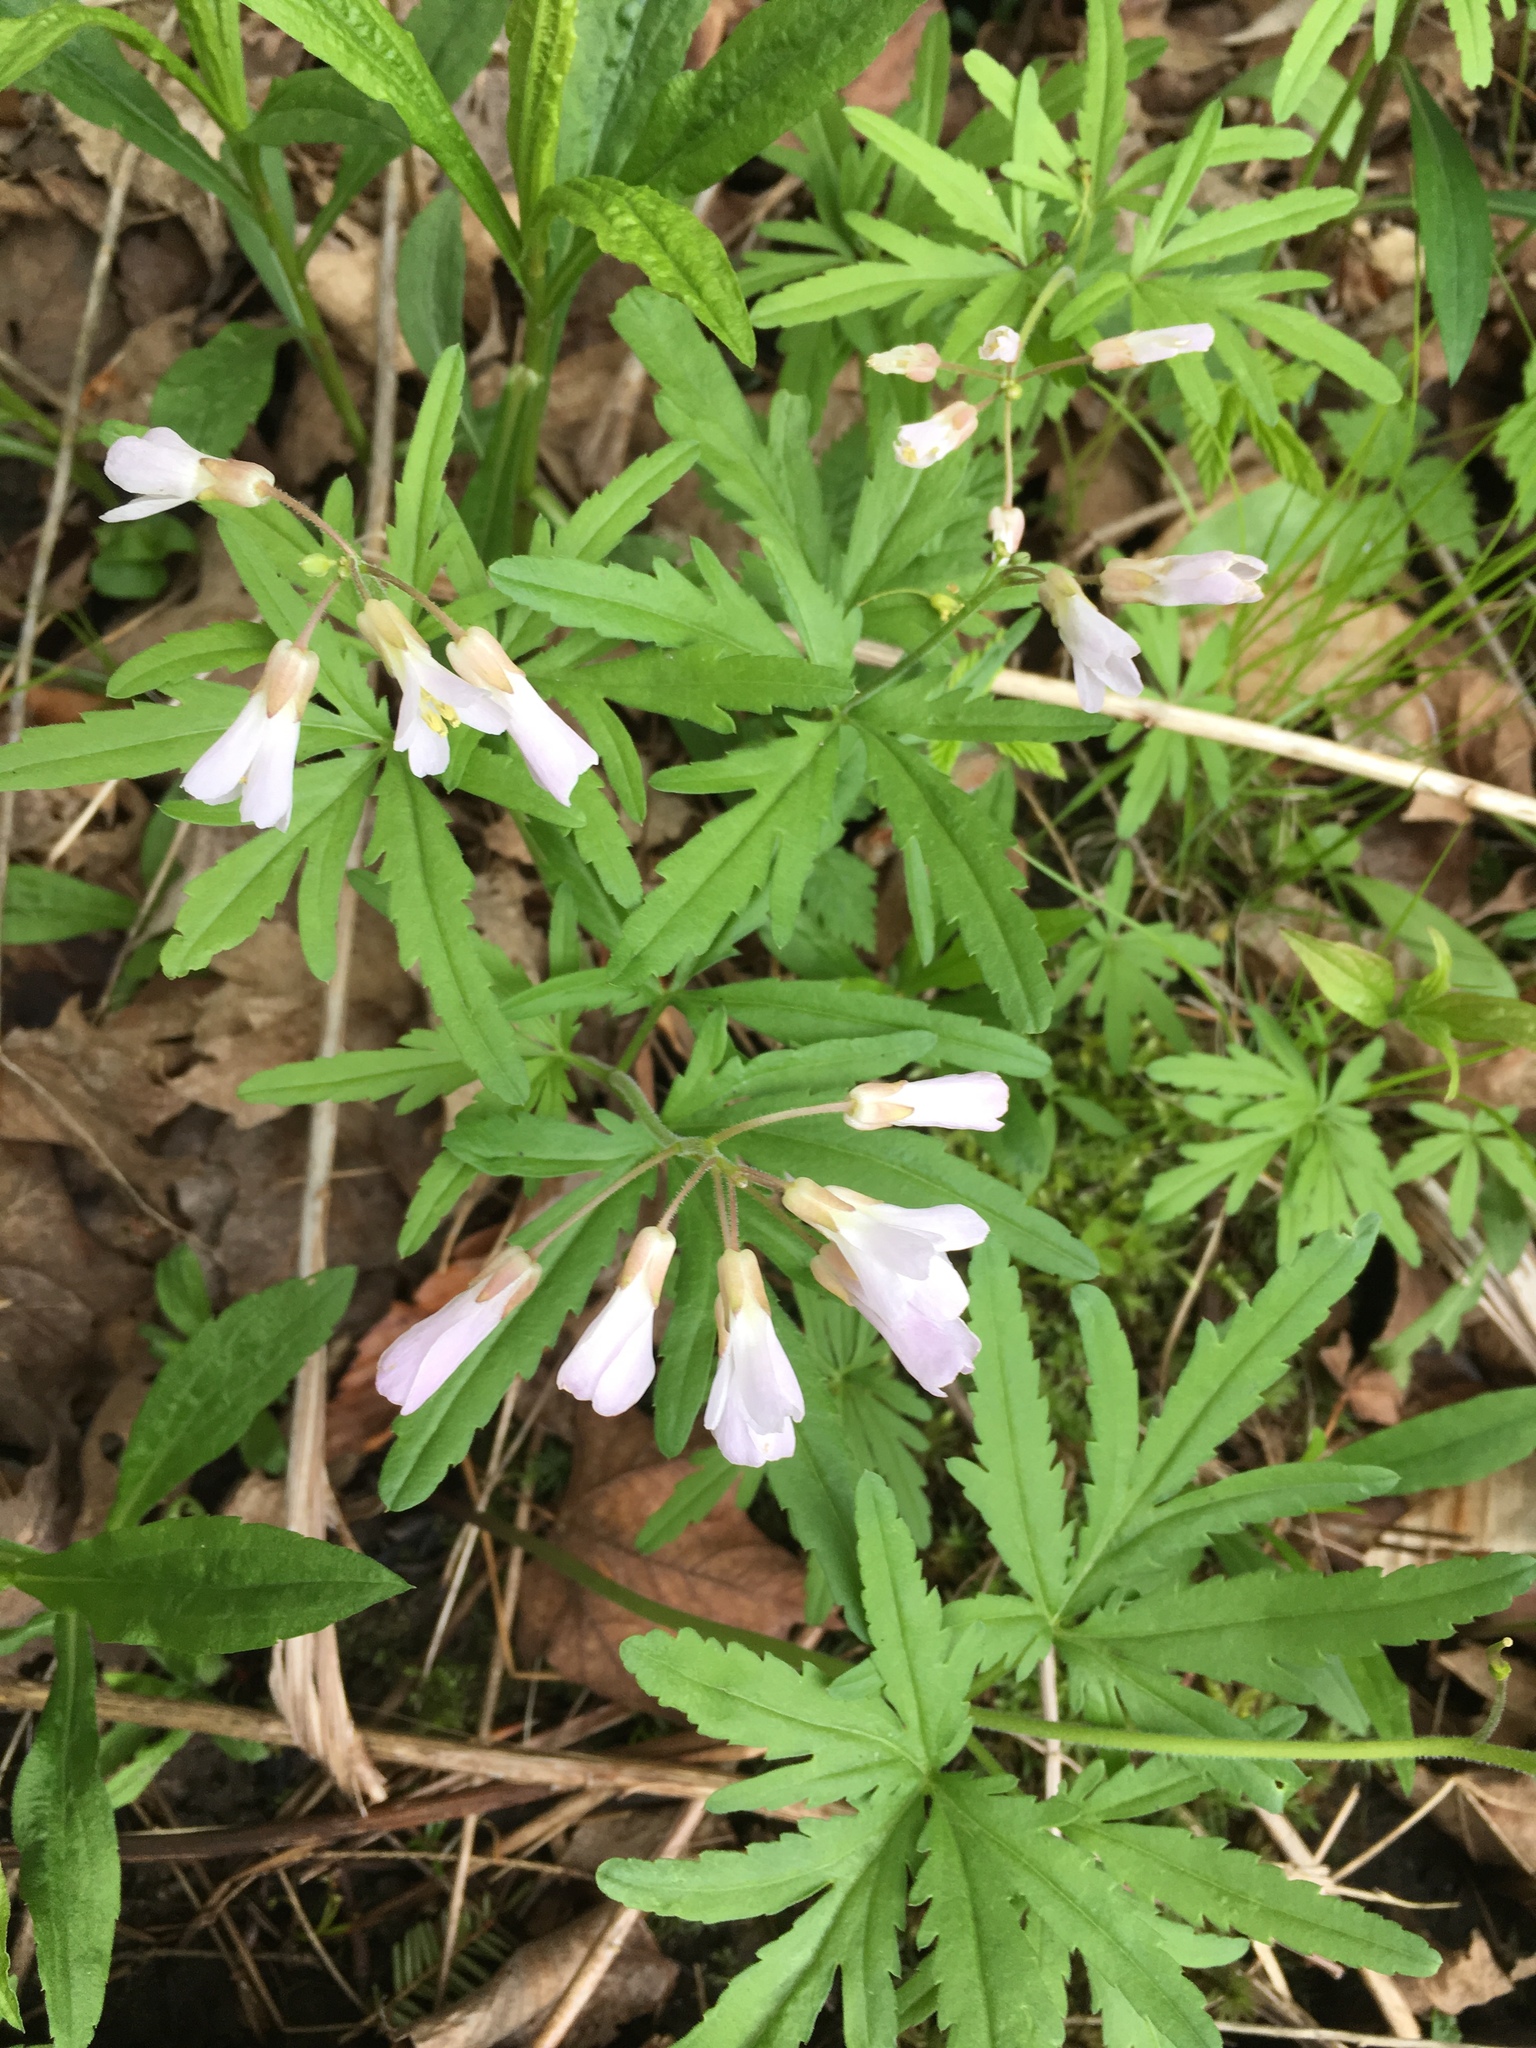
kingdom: Plantae
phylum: Tracheophyta
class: Magnoliopsida
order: Brassicales
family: Brassicaceae
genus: Cardamine
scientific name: Cardamine concatenata
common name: Cut-leaf toothcup
